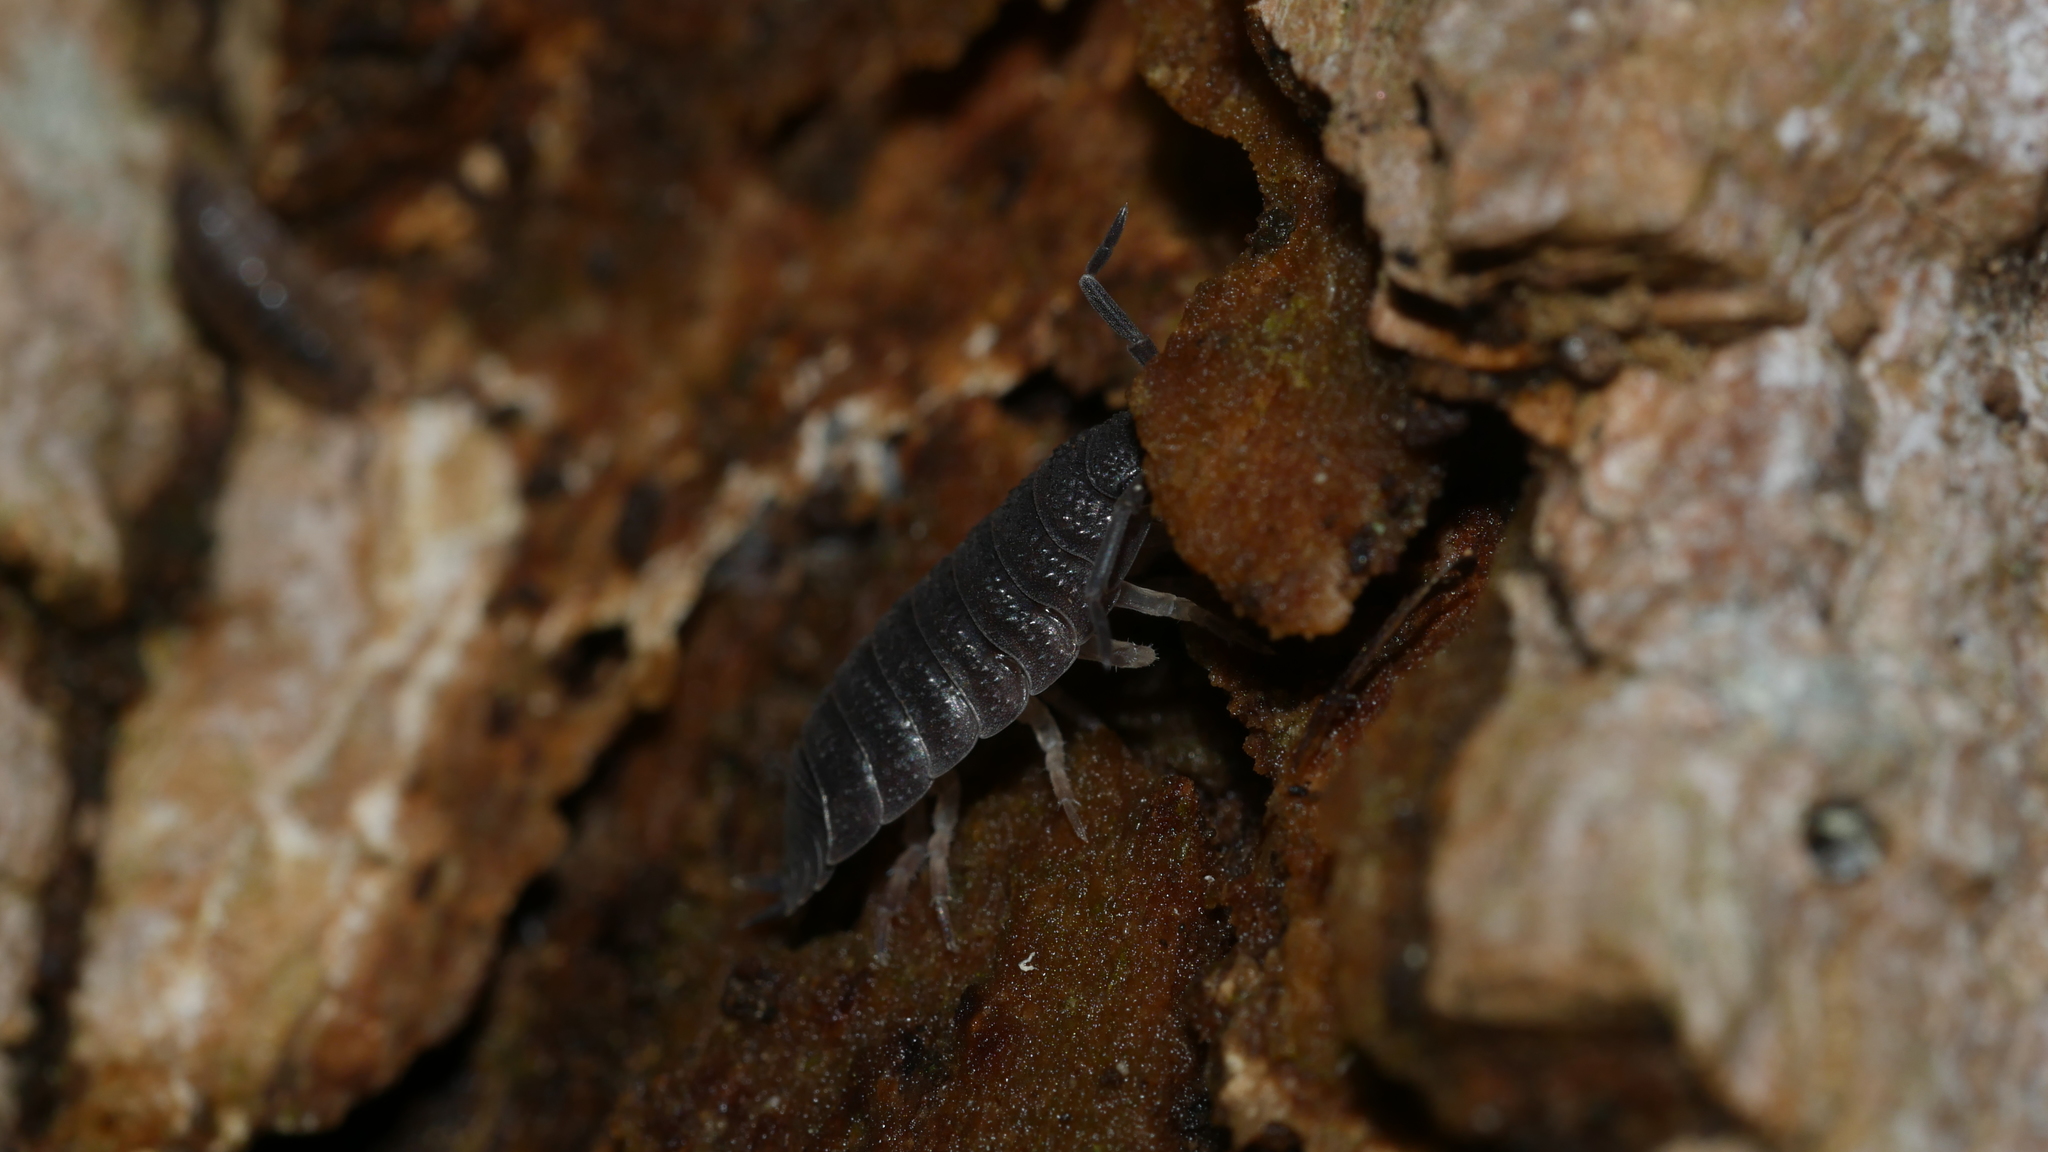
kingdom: Animalia
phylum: Arthropoda
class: Malacostraca
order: Isopoda
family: Porcellionidae
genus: Porcellio
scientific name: Porcellio scaber
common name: Common rough woodlouse
